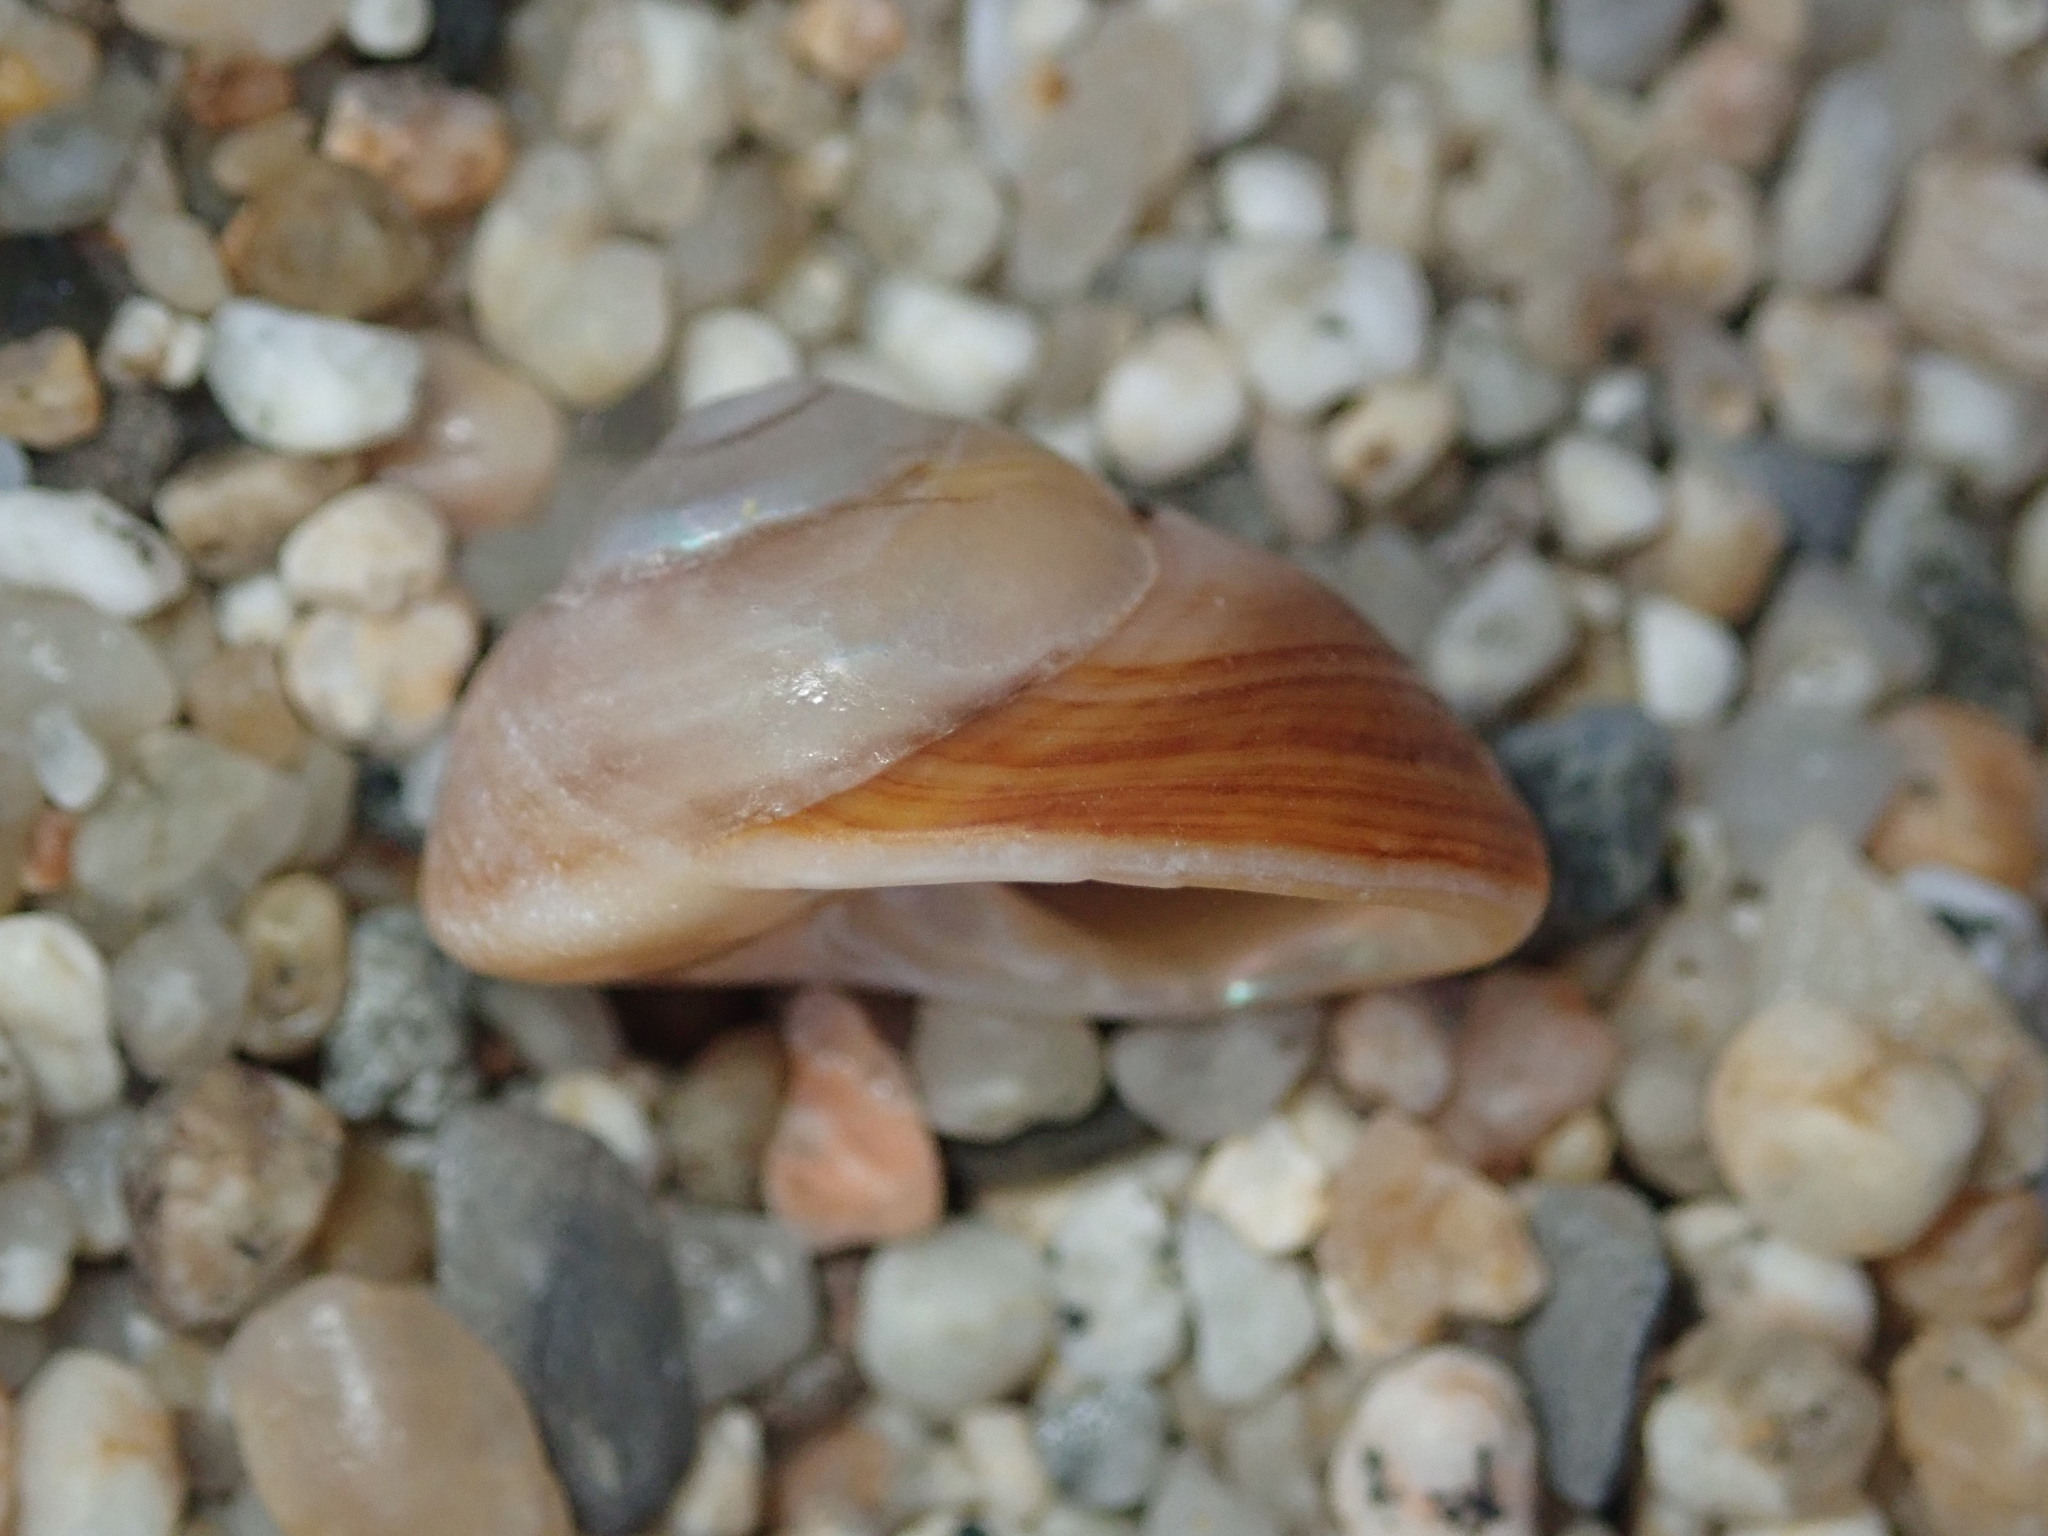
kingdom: Animalia
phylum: Mollusca
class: Gastropoda
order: Trochida
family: Tegulidae
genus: Tegula
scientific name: Tegula brunnea
